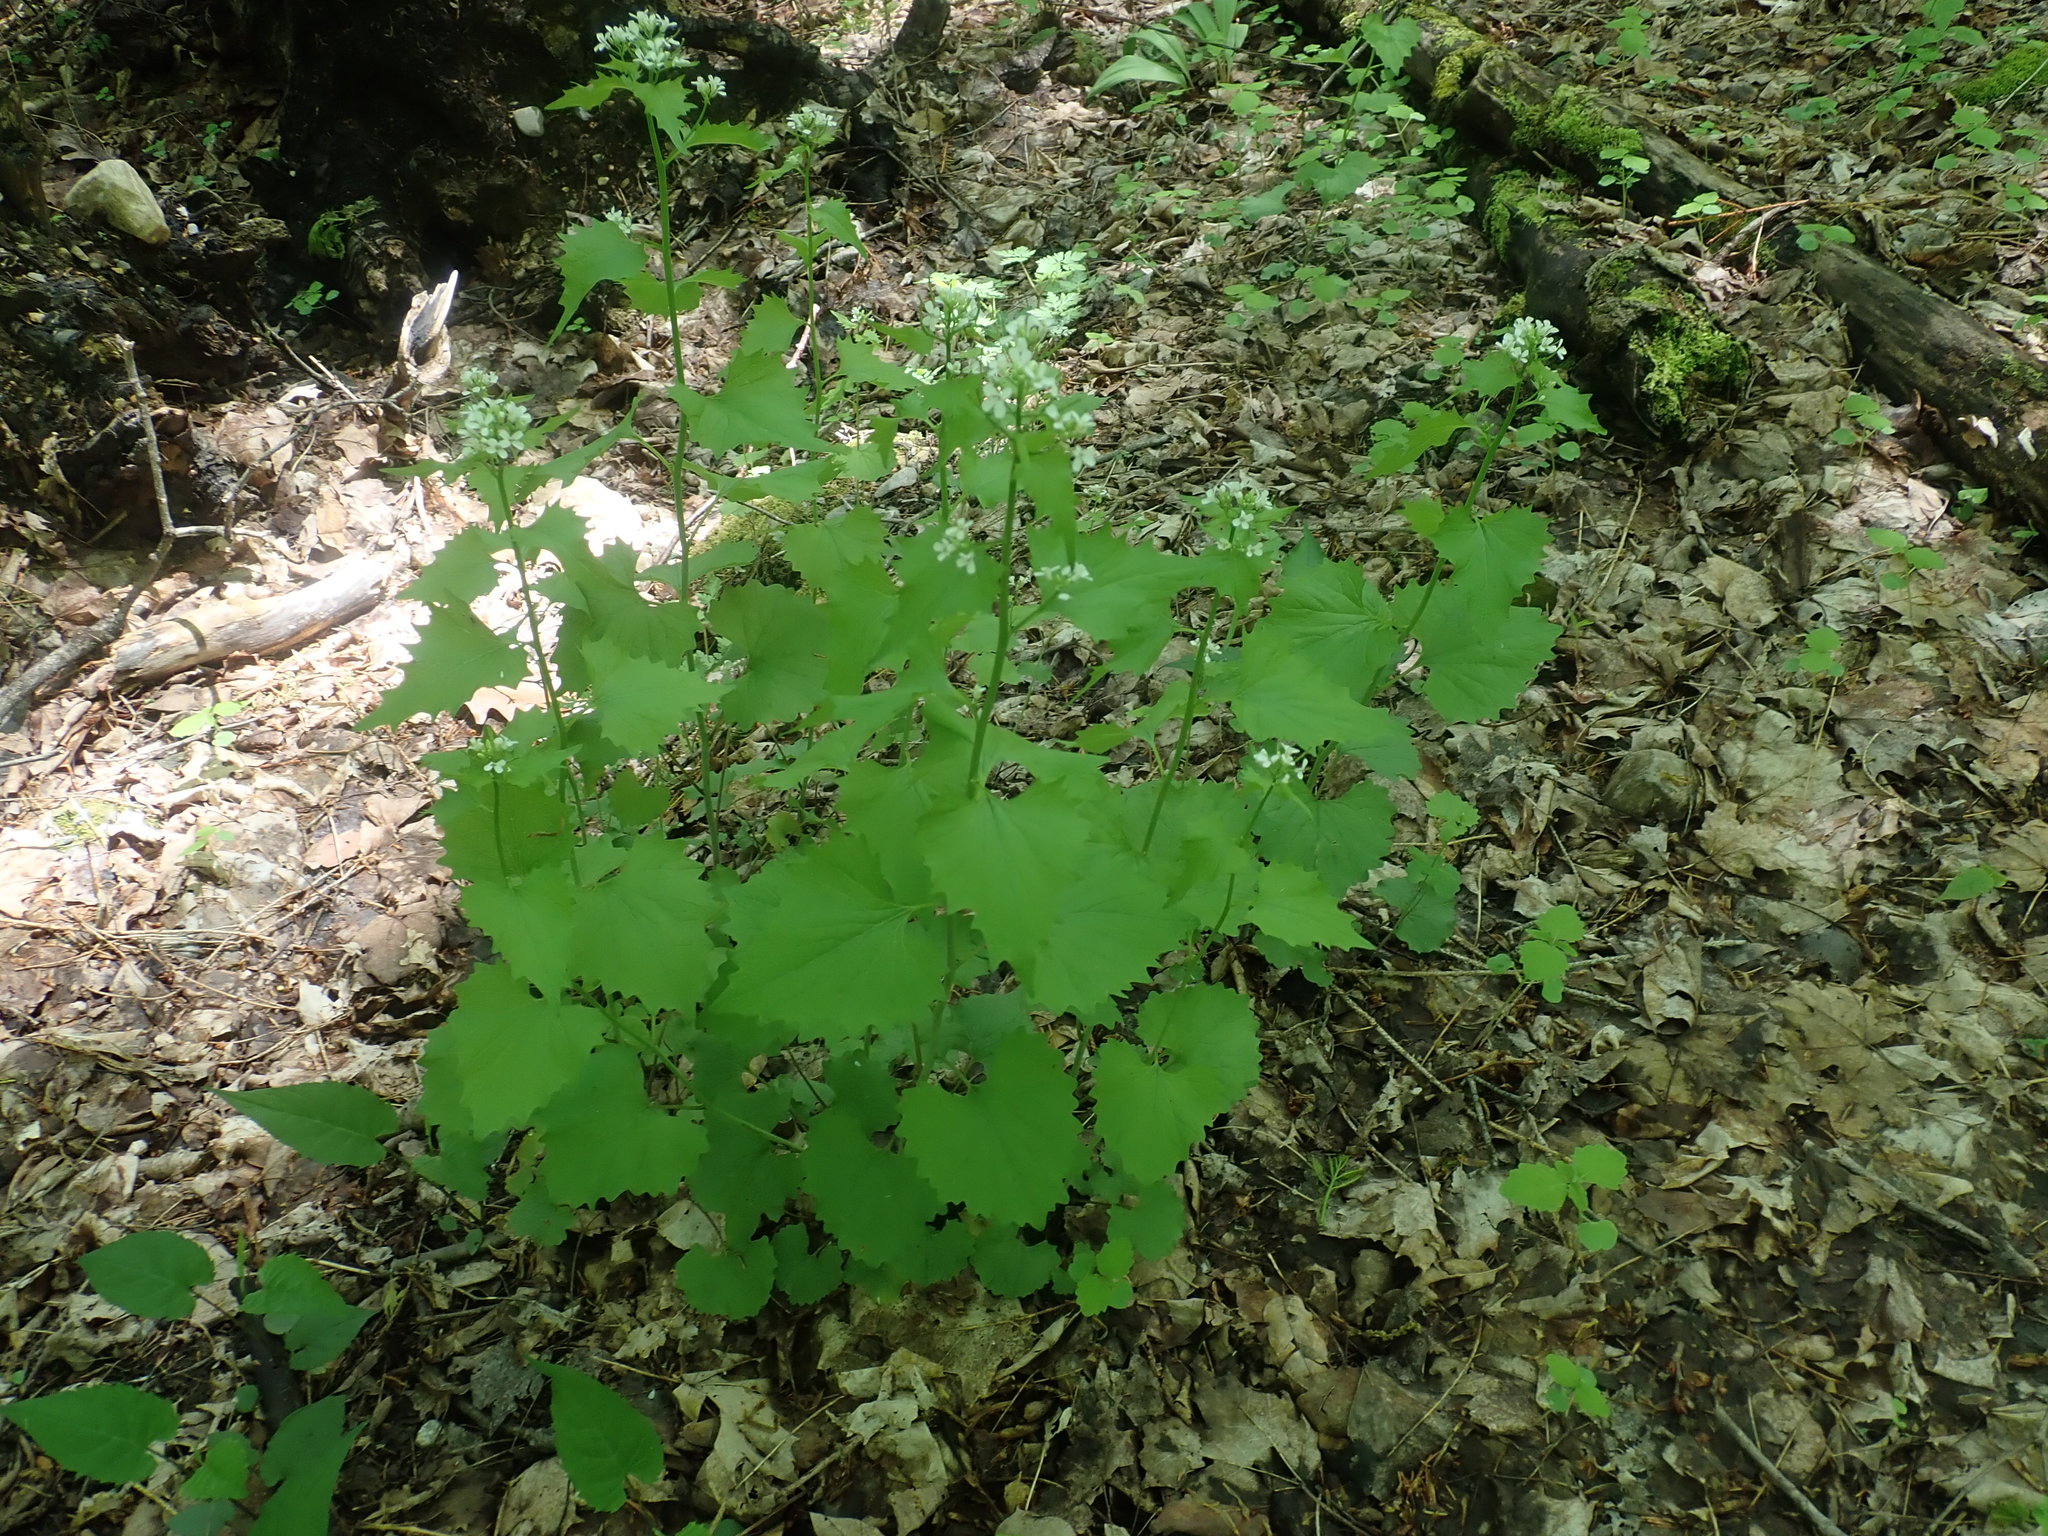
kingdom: Plantae
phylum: Tracheophyta
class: Magnoliopsida
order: Brassicales
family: Brassicaceae
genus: Alliaria
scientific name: Alliaria petiolata
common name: Garlic mustard
